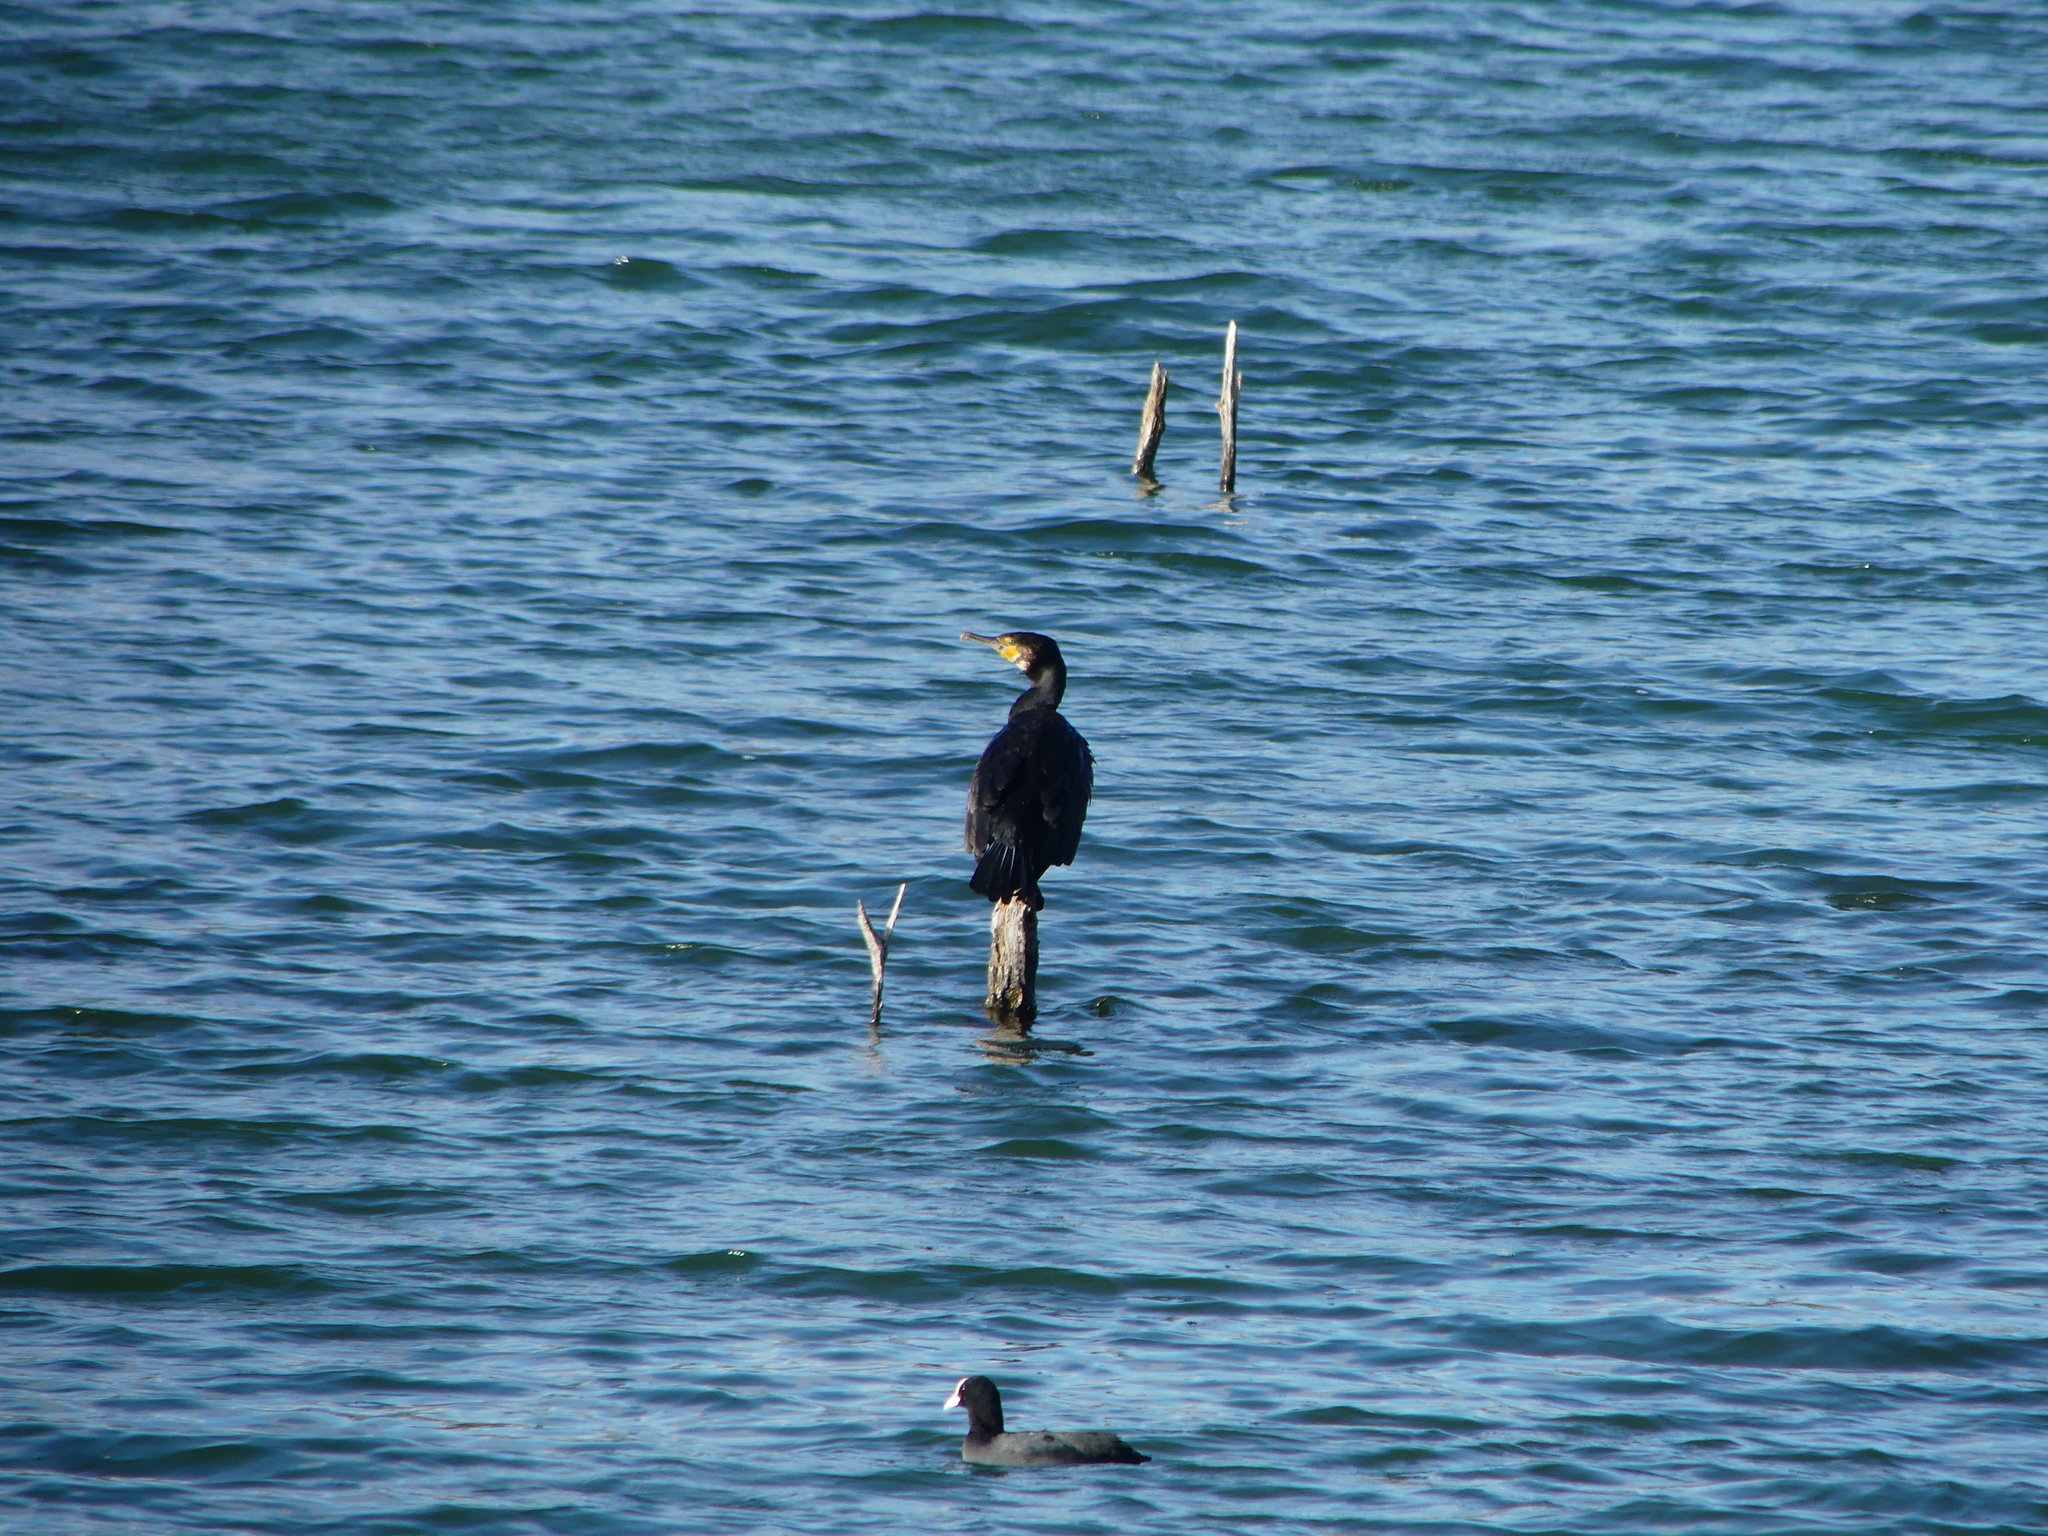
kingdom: Animalia
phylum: Chordata
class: Aves
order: Suliformes
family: Phalacrocoracidae
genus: Phalacrocorax
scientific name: Phalacrocorax carbo
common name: Great cormorant
